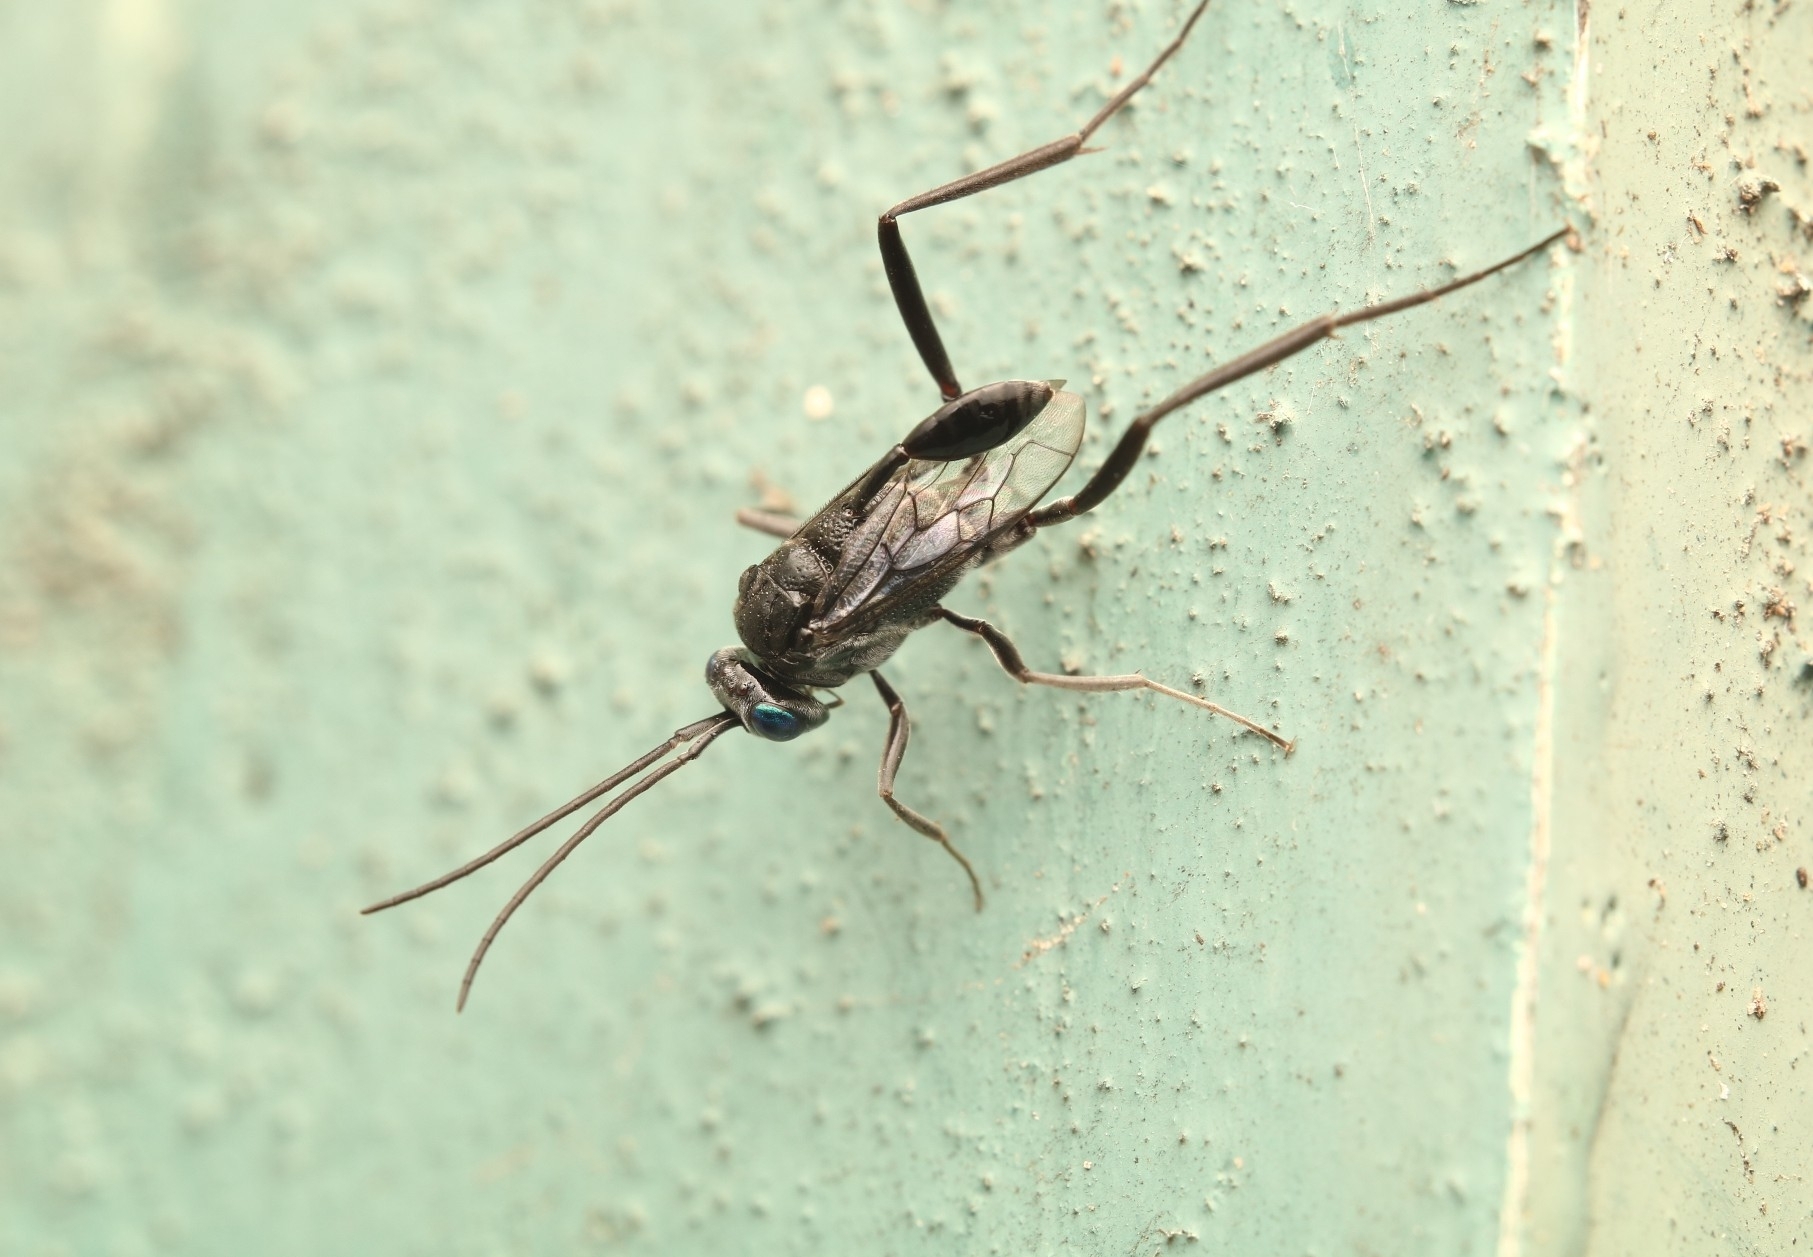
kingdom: Animalia
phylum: Arthropoda
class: Insecta
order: Hymenoptera
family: Evaniidae
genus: Evania
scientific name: Evania appendigaster
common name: Ensign wasp
